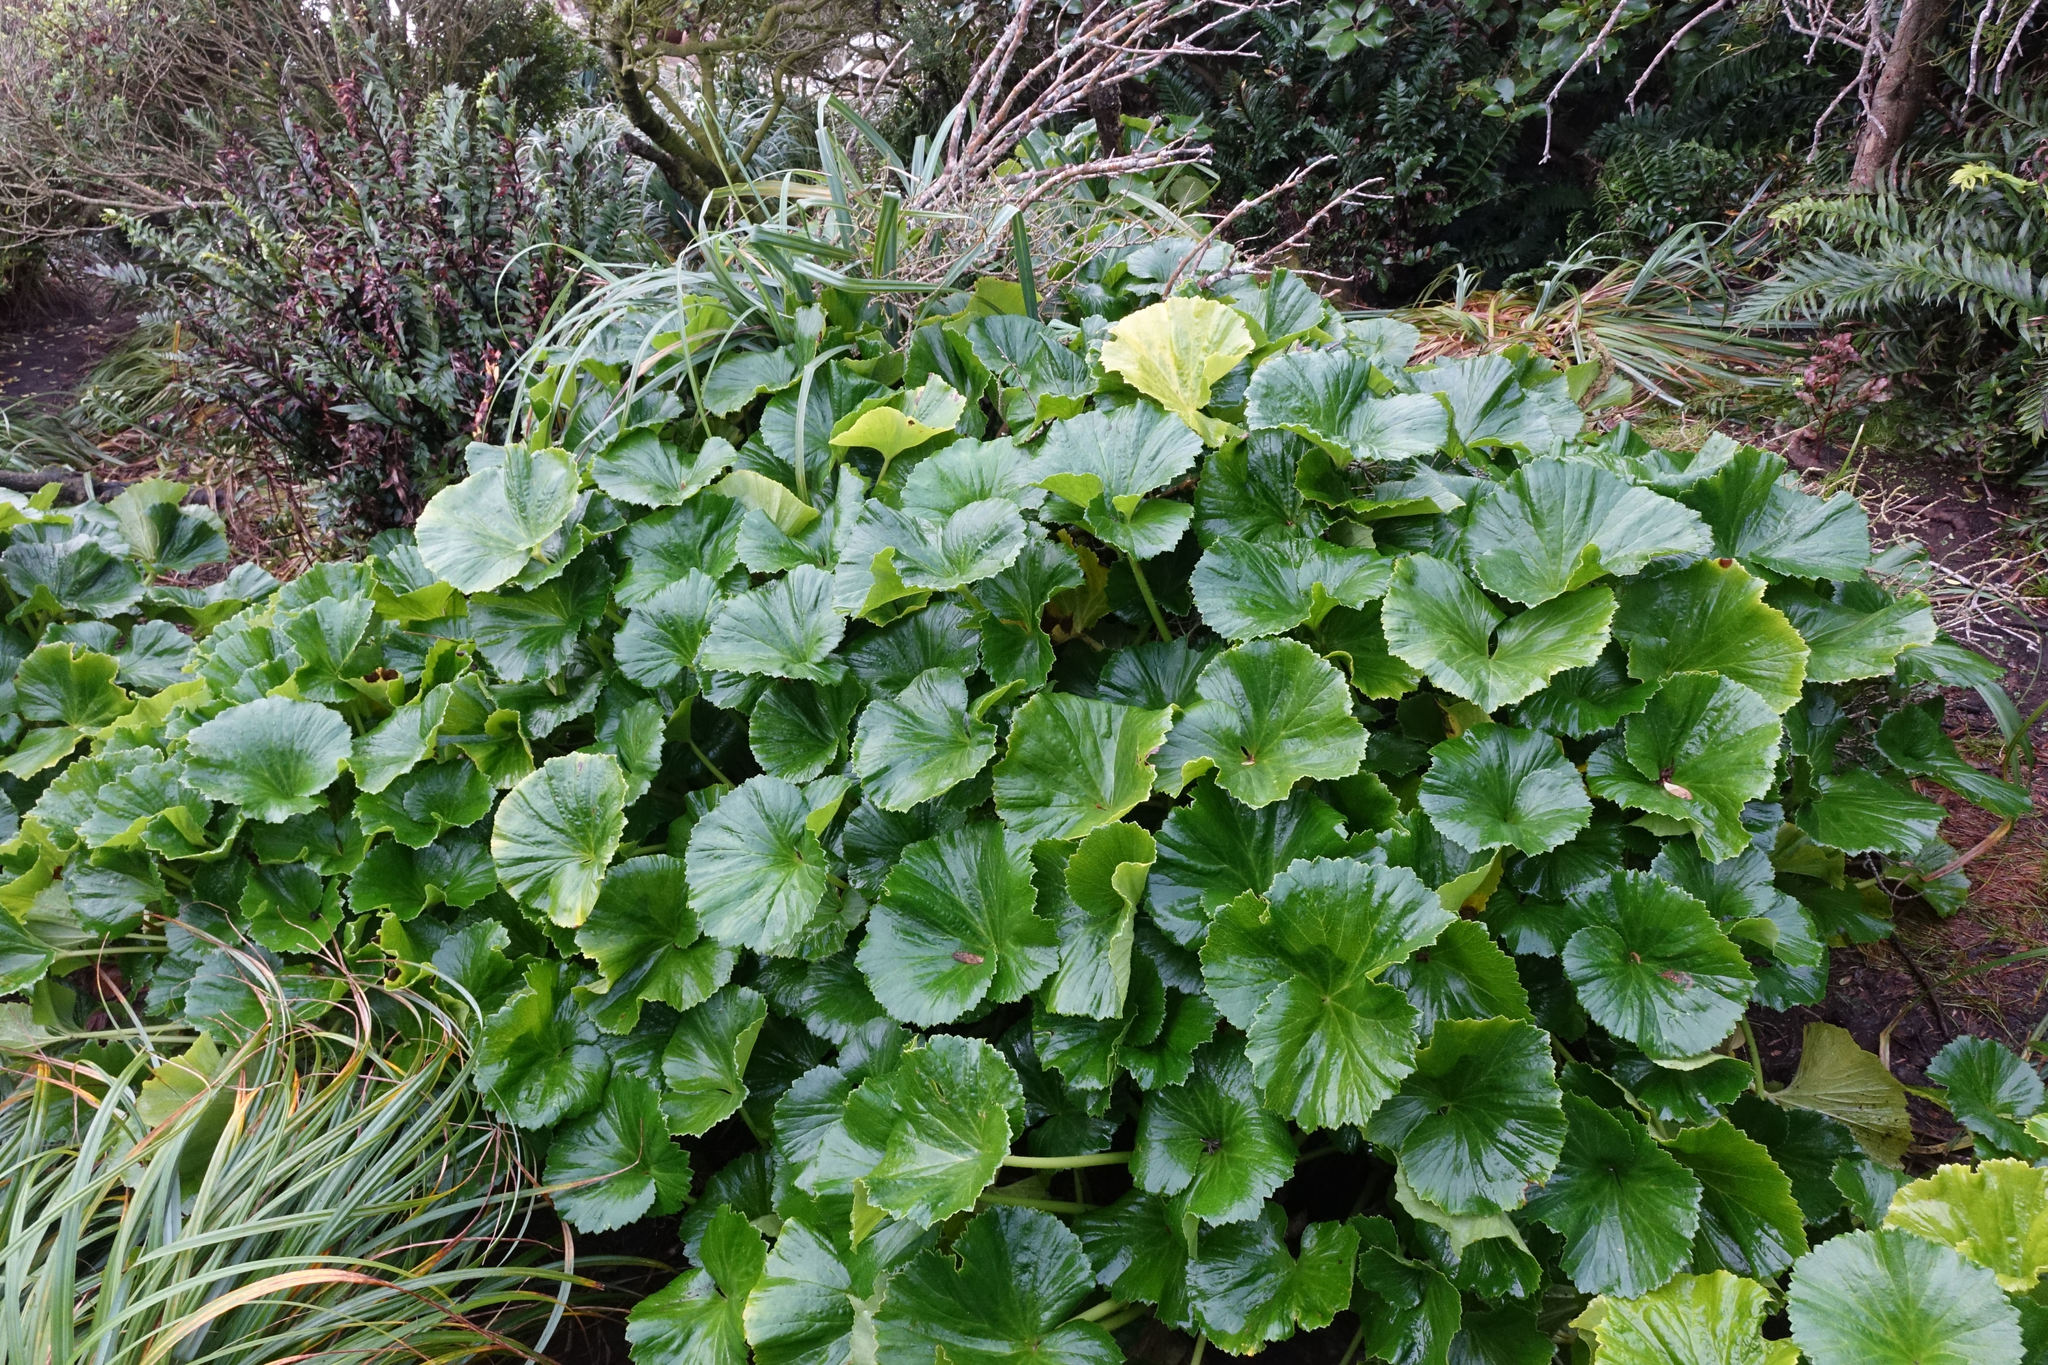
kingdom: Plantae
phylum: Tracheophyta
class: Magnoliopsida
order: Apiales
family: Apiaceae
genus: Azorella
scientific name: Azorella lyallii
